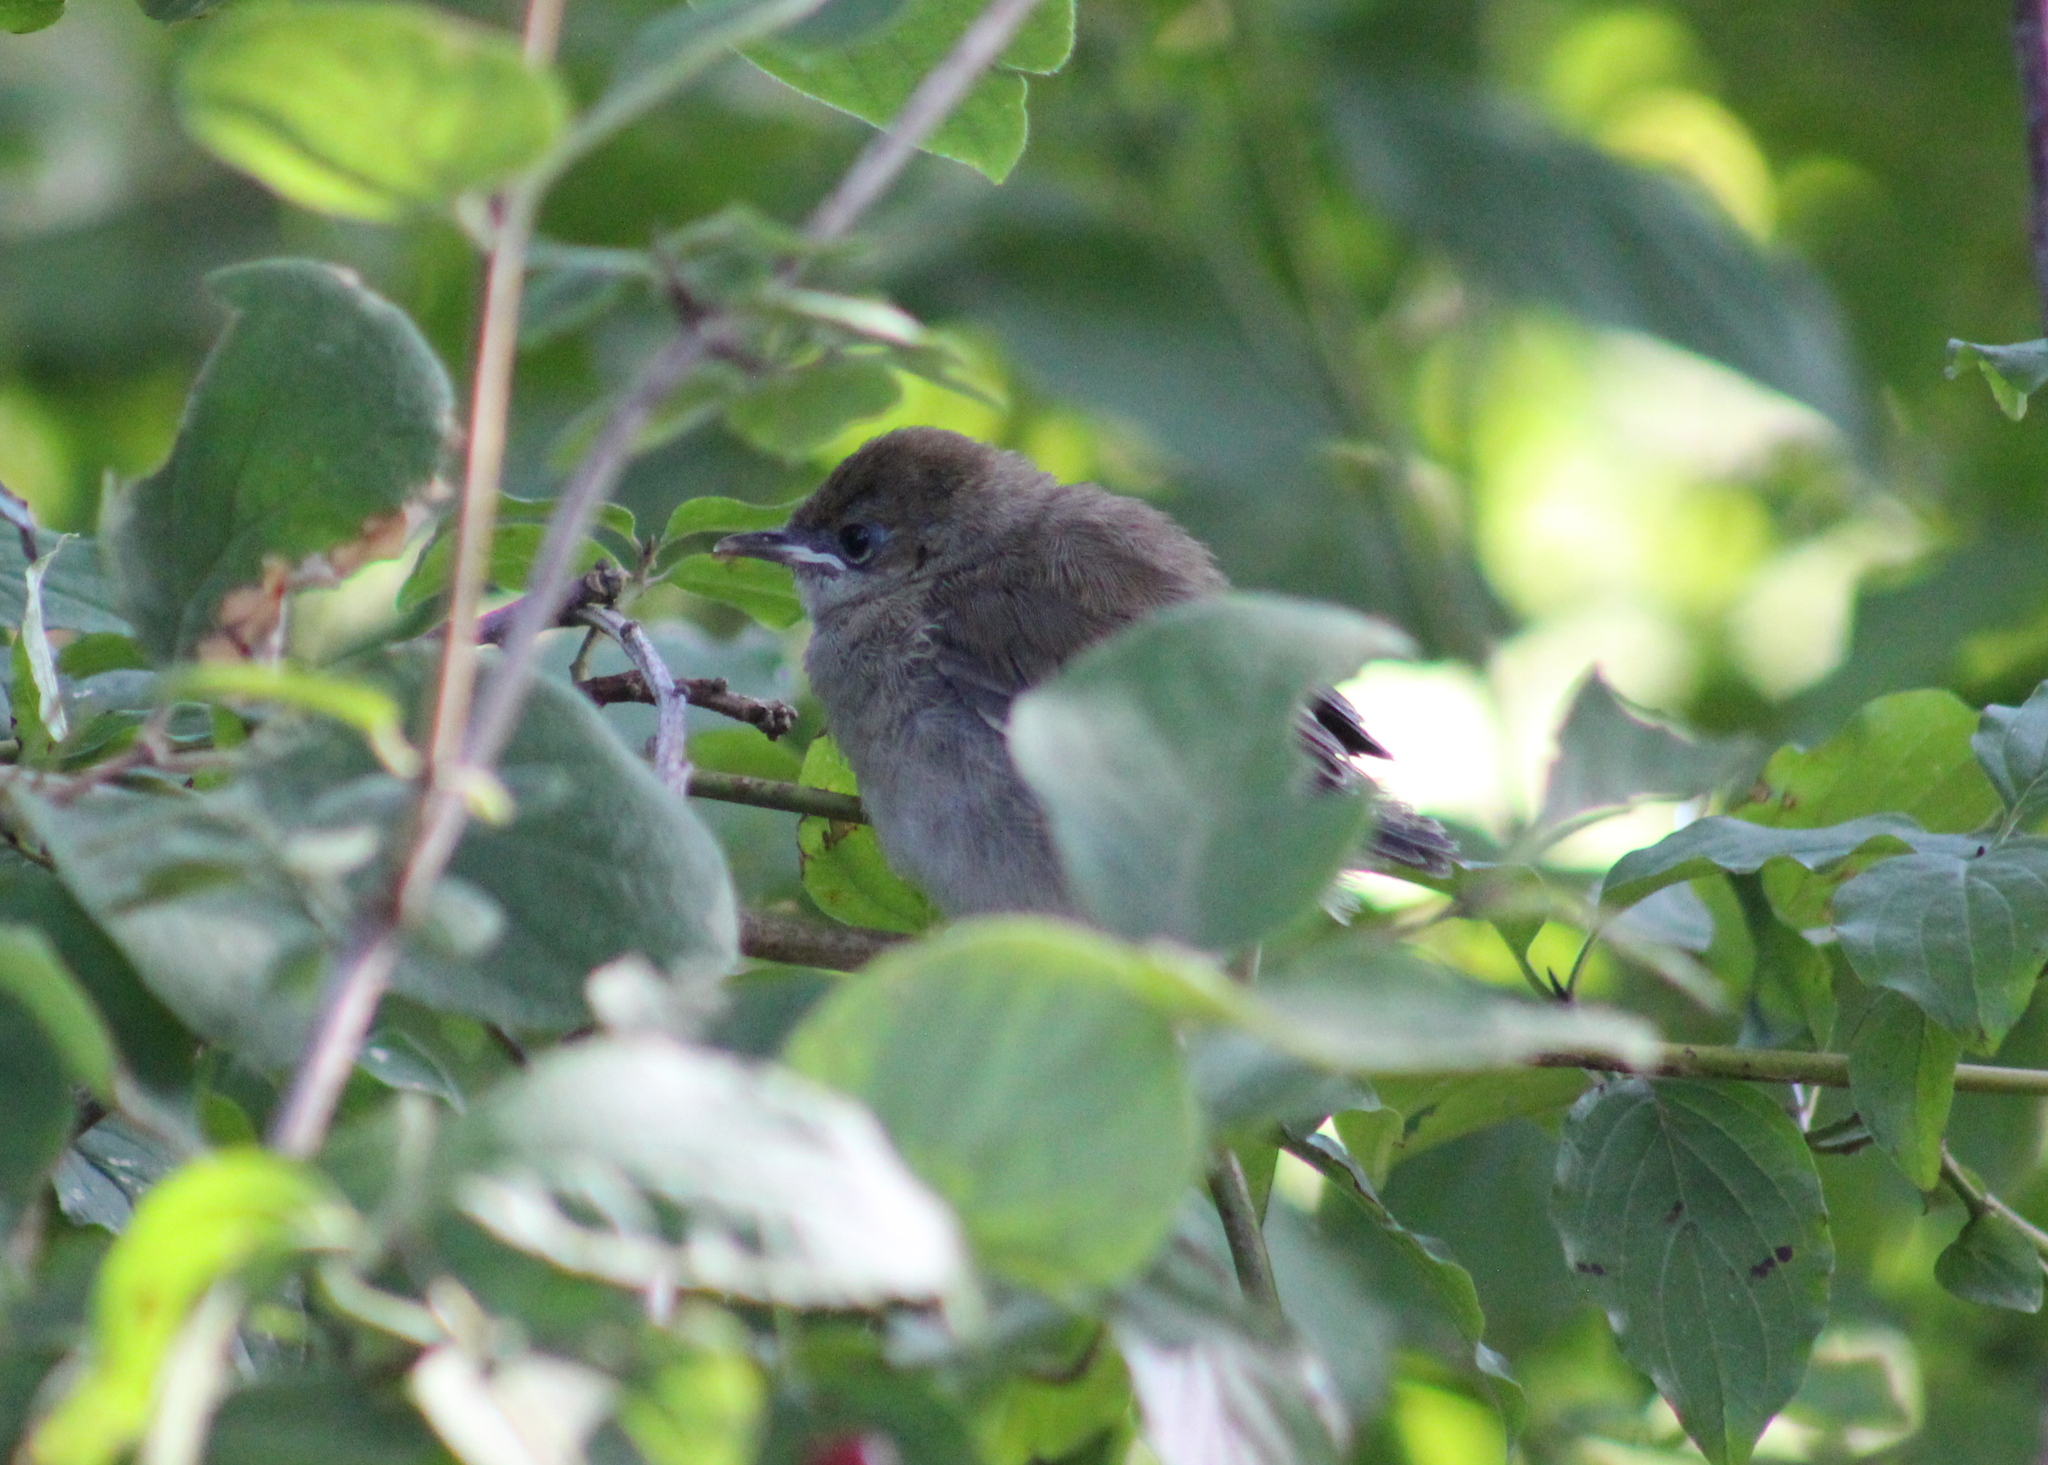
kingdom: Animalia
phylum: Chordata
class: Aves
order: Passeriformes
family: Sylviidae
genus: Sylvia
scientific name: Sylvia atricapilla
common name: Eurasian blackcap
